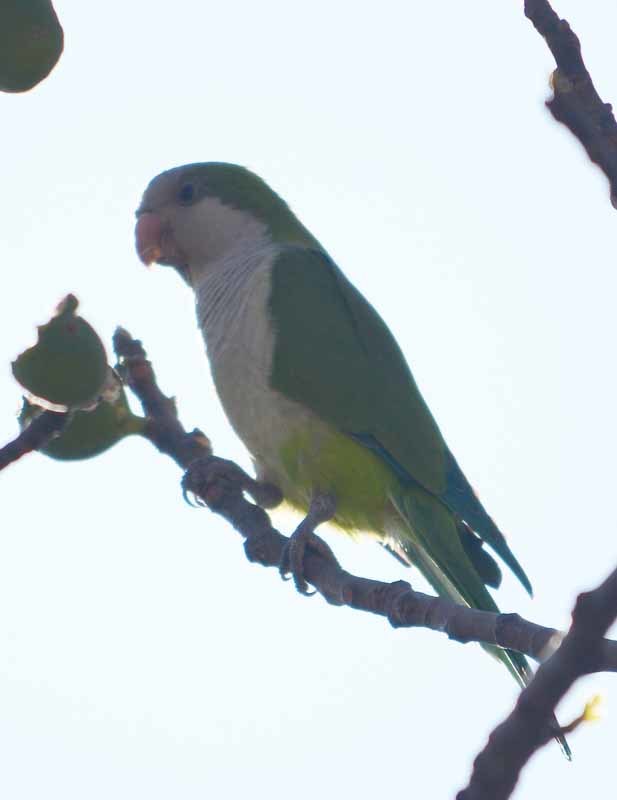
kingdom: Animalia
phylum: Chordata
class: Aves
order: Psittaciformes
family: Psittacidae
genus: Myiopsitta
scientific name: Myiopsitta monachus
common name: Monk parakeet
